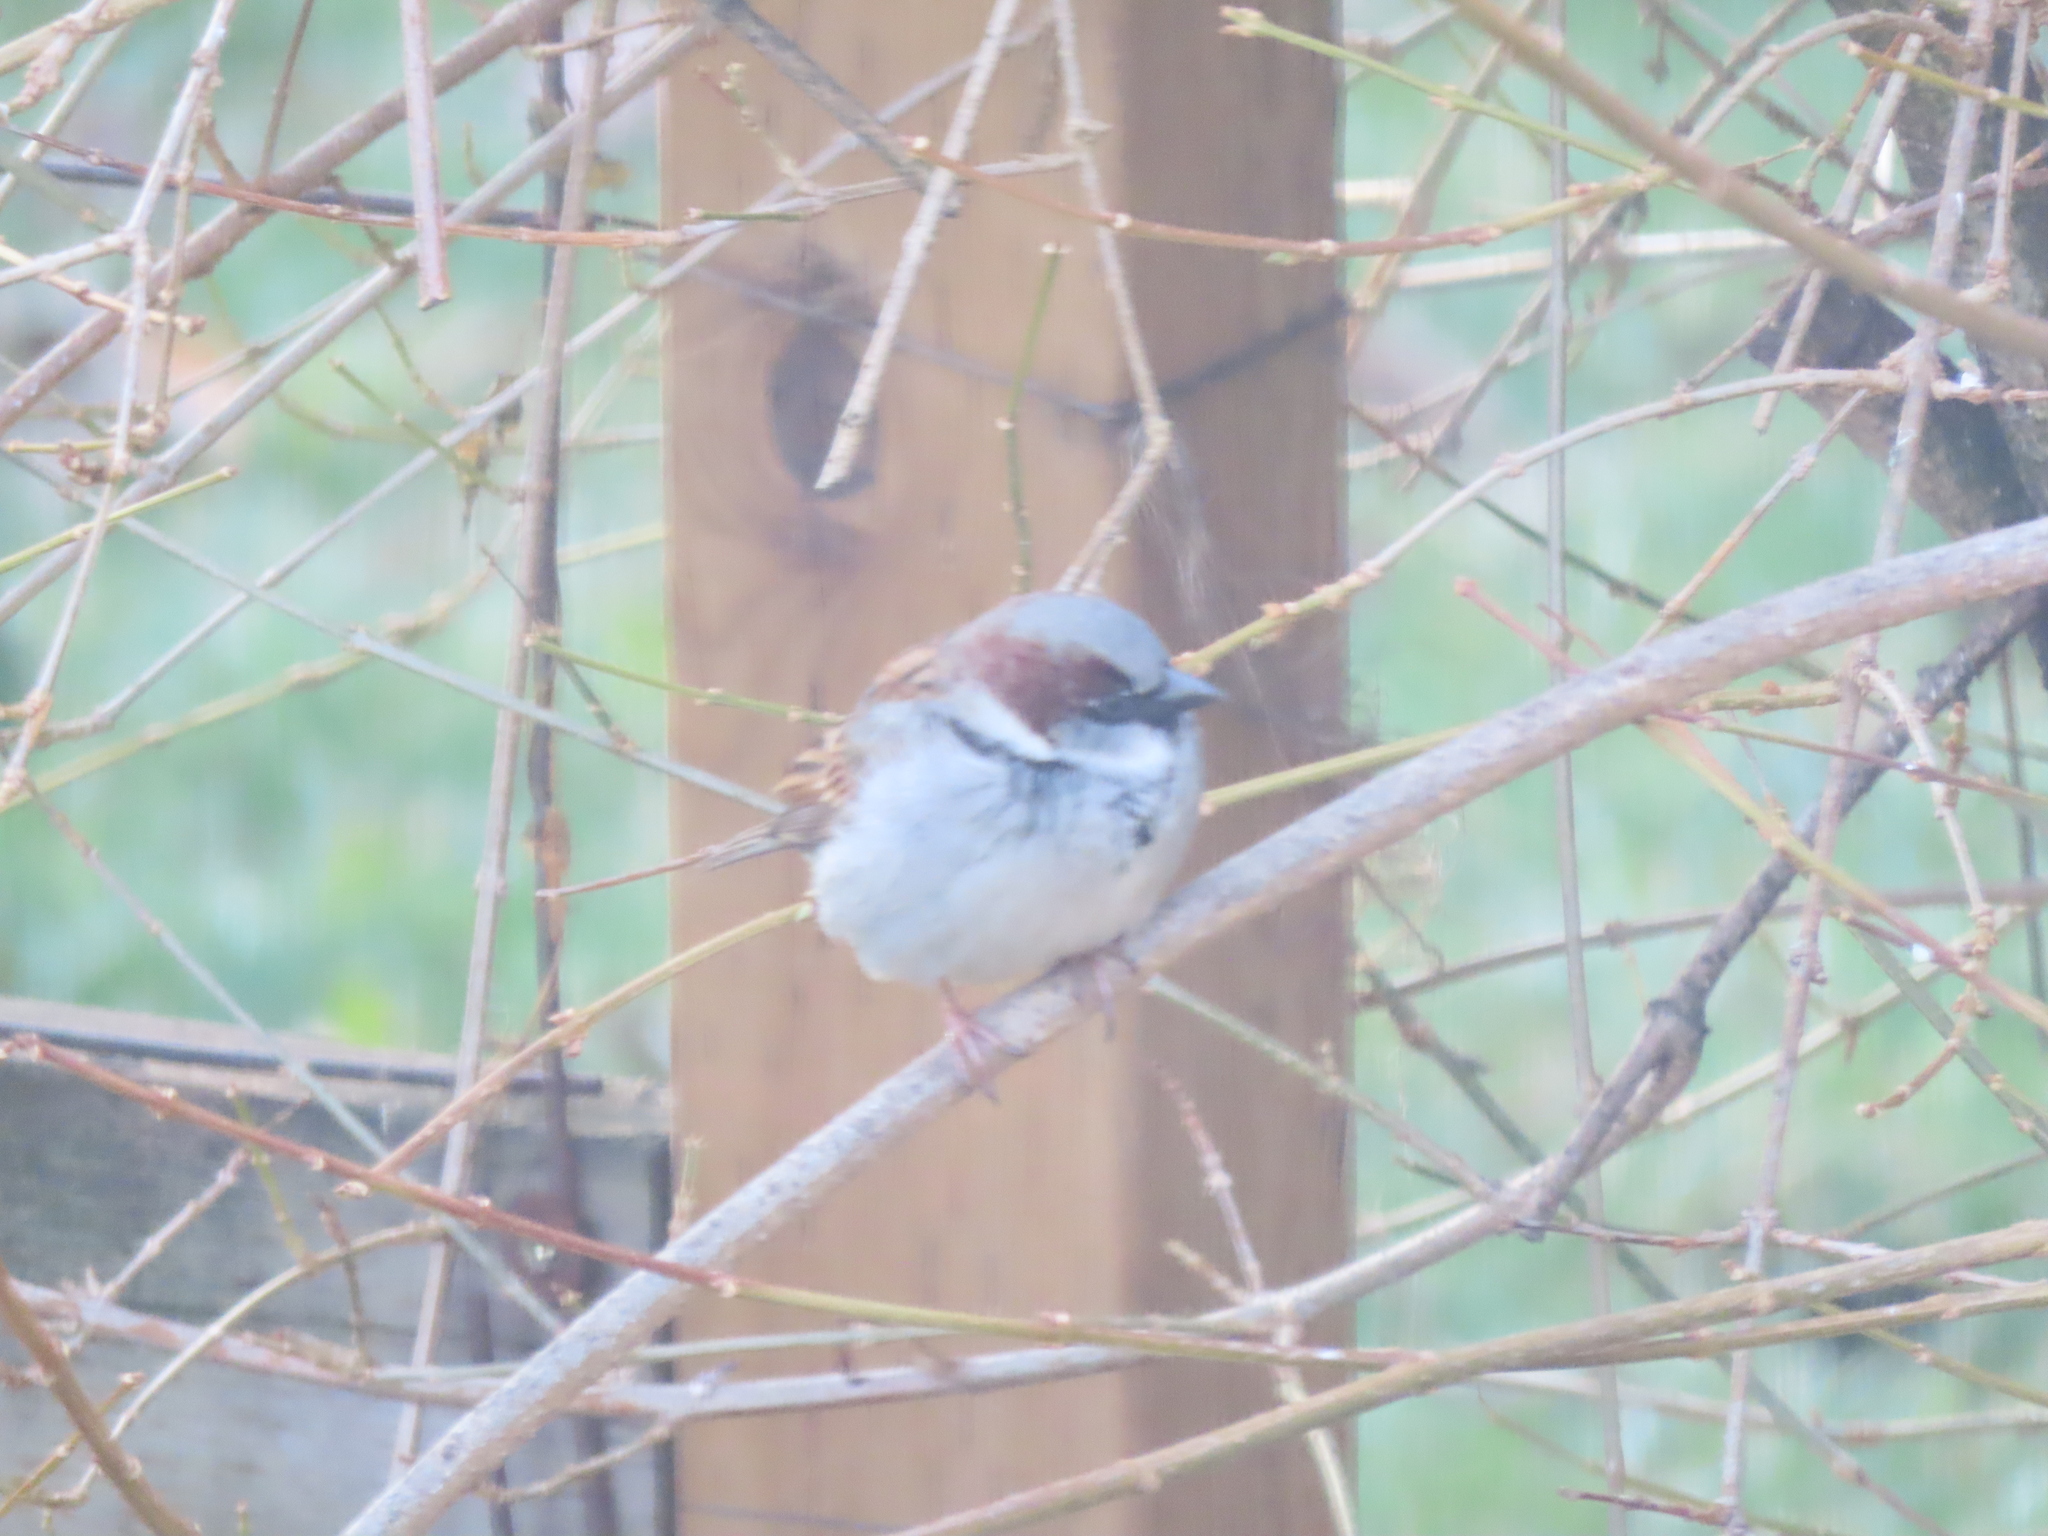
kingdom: Animalia
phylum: Chordata
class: Aves
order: Passeriformes
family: Passeridae
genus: Passer
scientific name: Passer domesticus
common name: House sparrow
